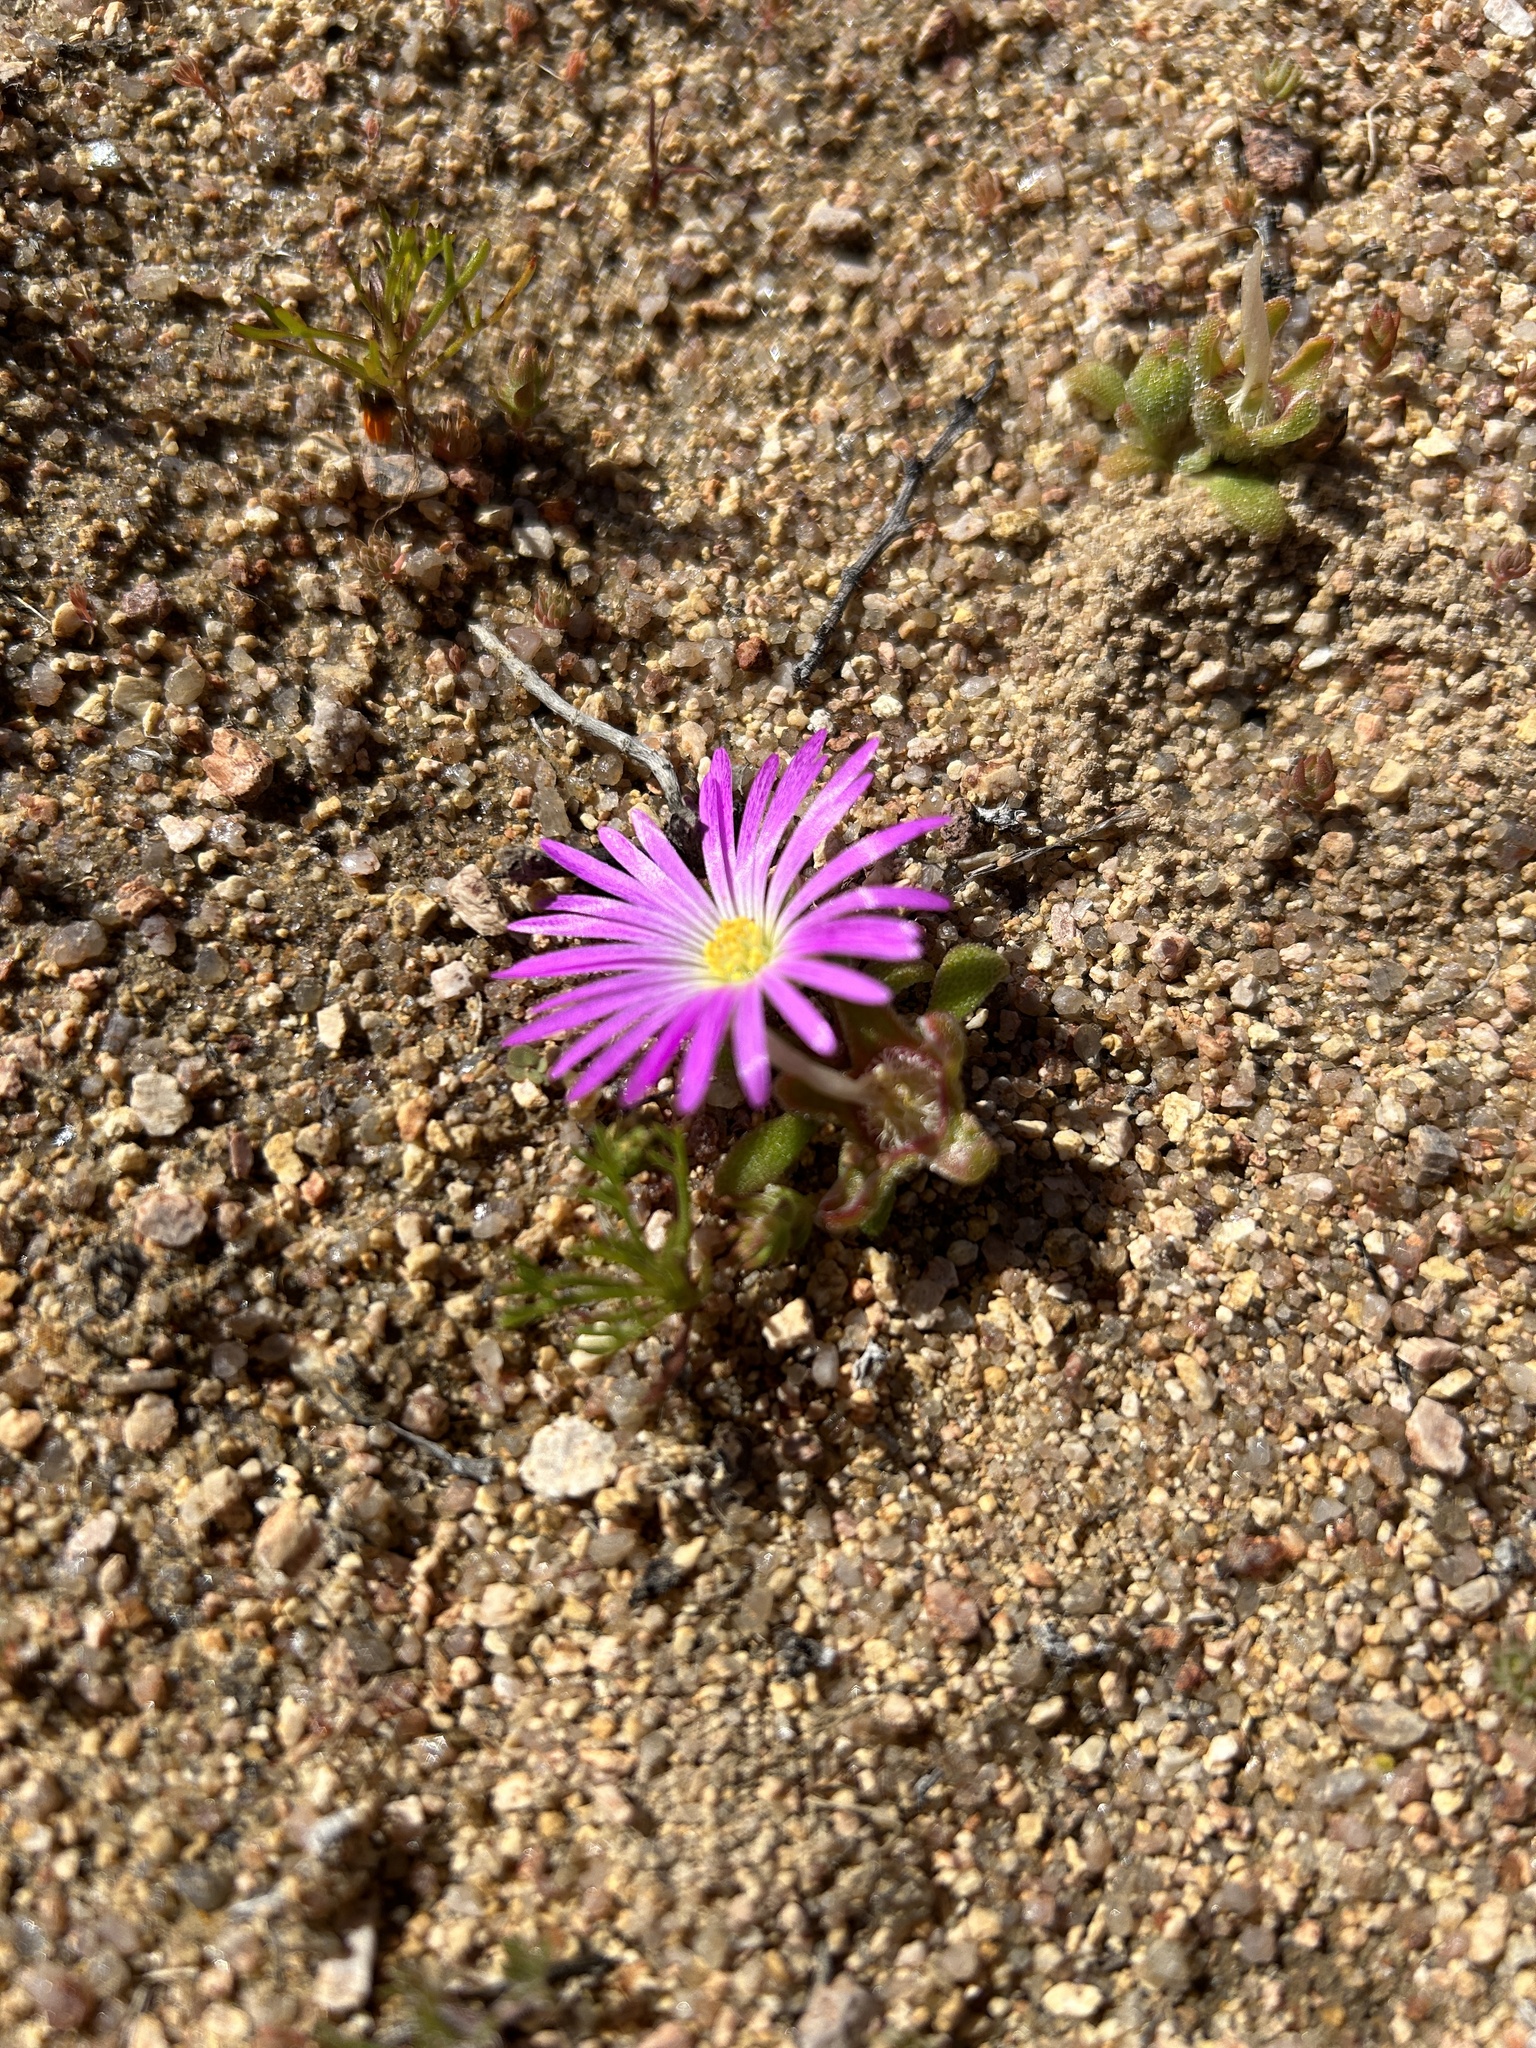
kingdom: Plantae
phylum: Tracheophyta
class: Magnoliopsida
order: Caryophyllales
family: Aizoaceae
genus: Cleretum
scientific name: Cleretum hestermalense
